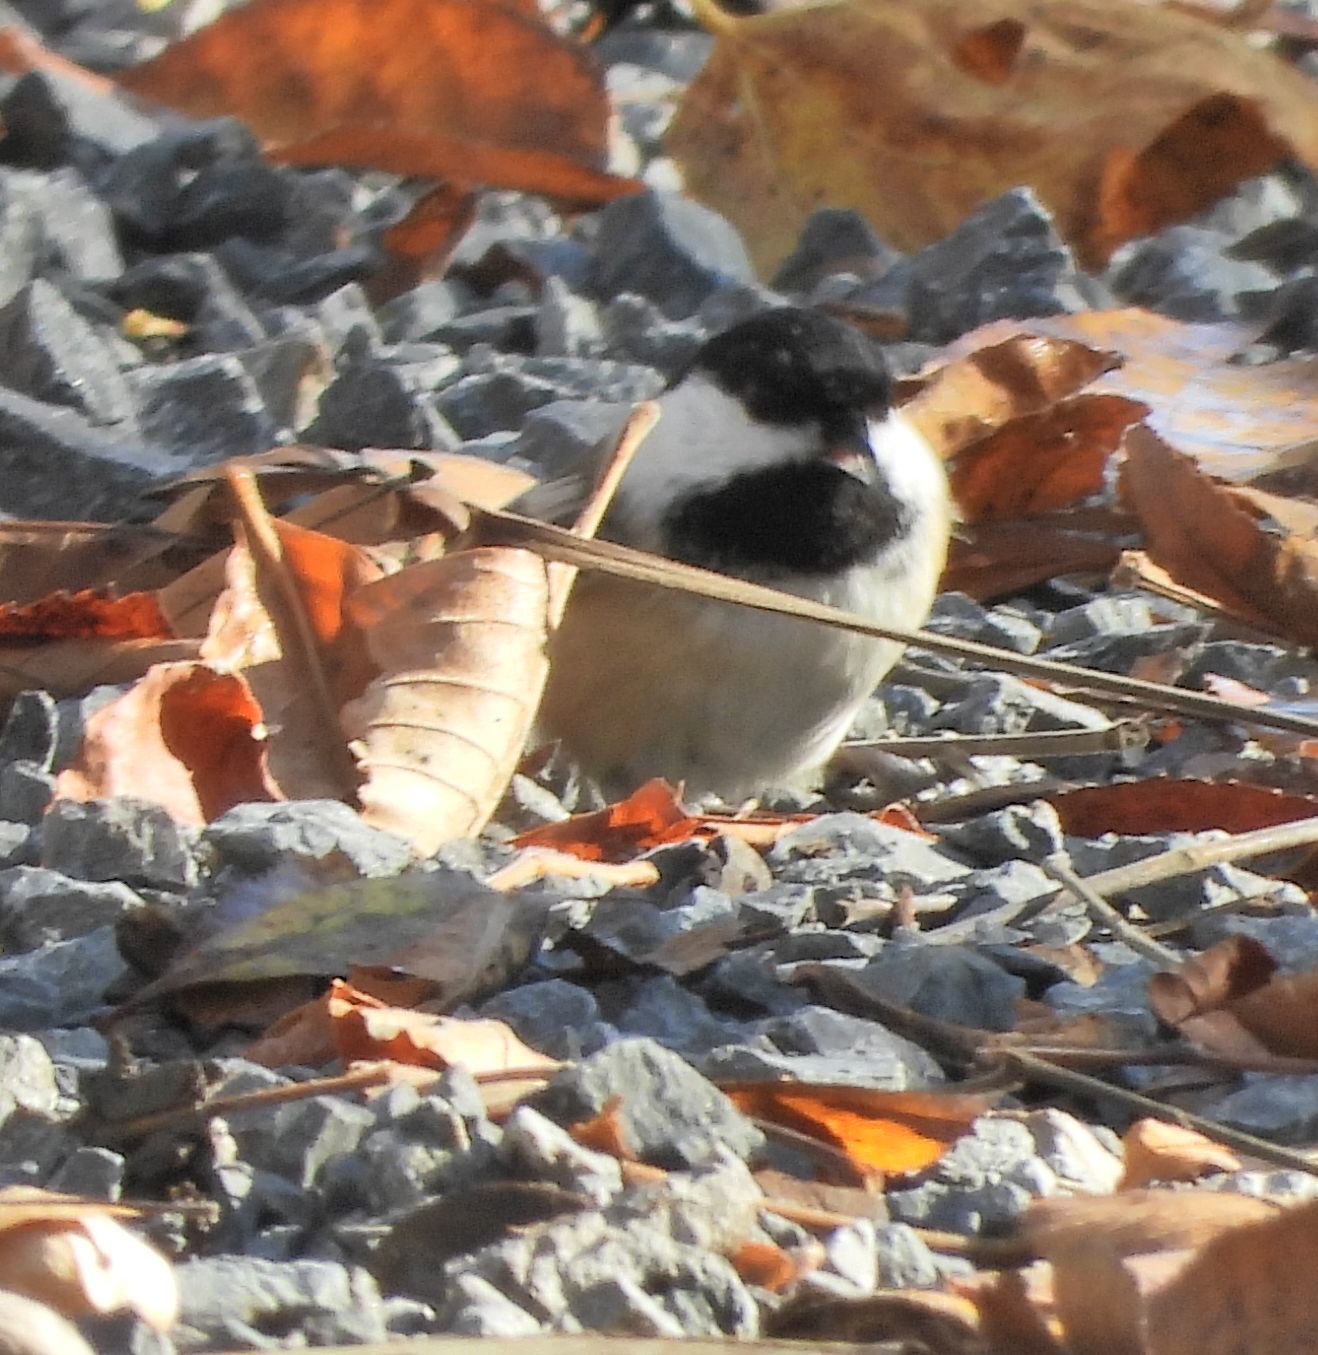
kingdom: Animalia
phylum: Chordata
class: Aves
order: Passeriformes
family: Paridae
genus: Poecile
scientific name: Poecile atricapillus
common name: Black-capped chickadee
